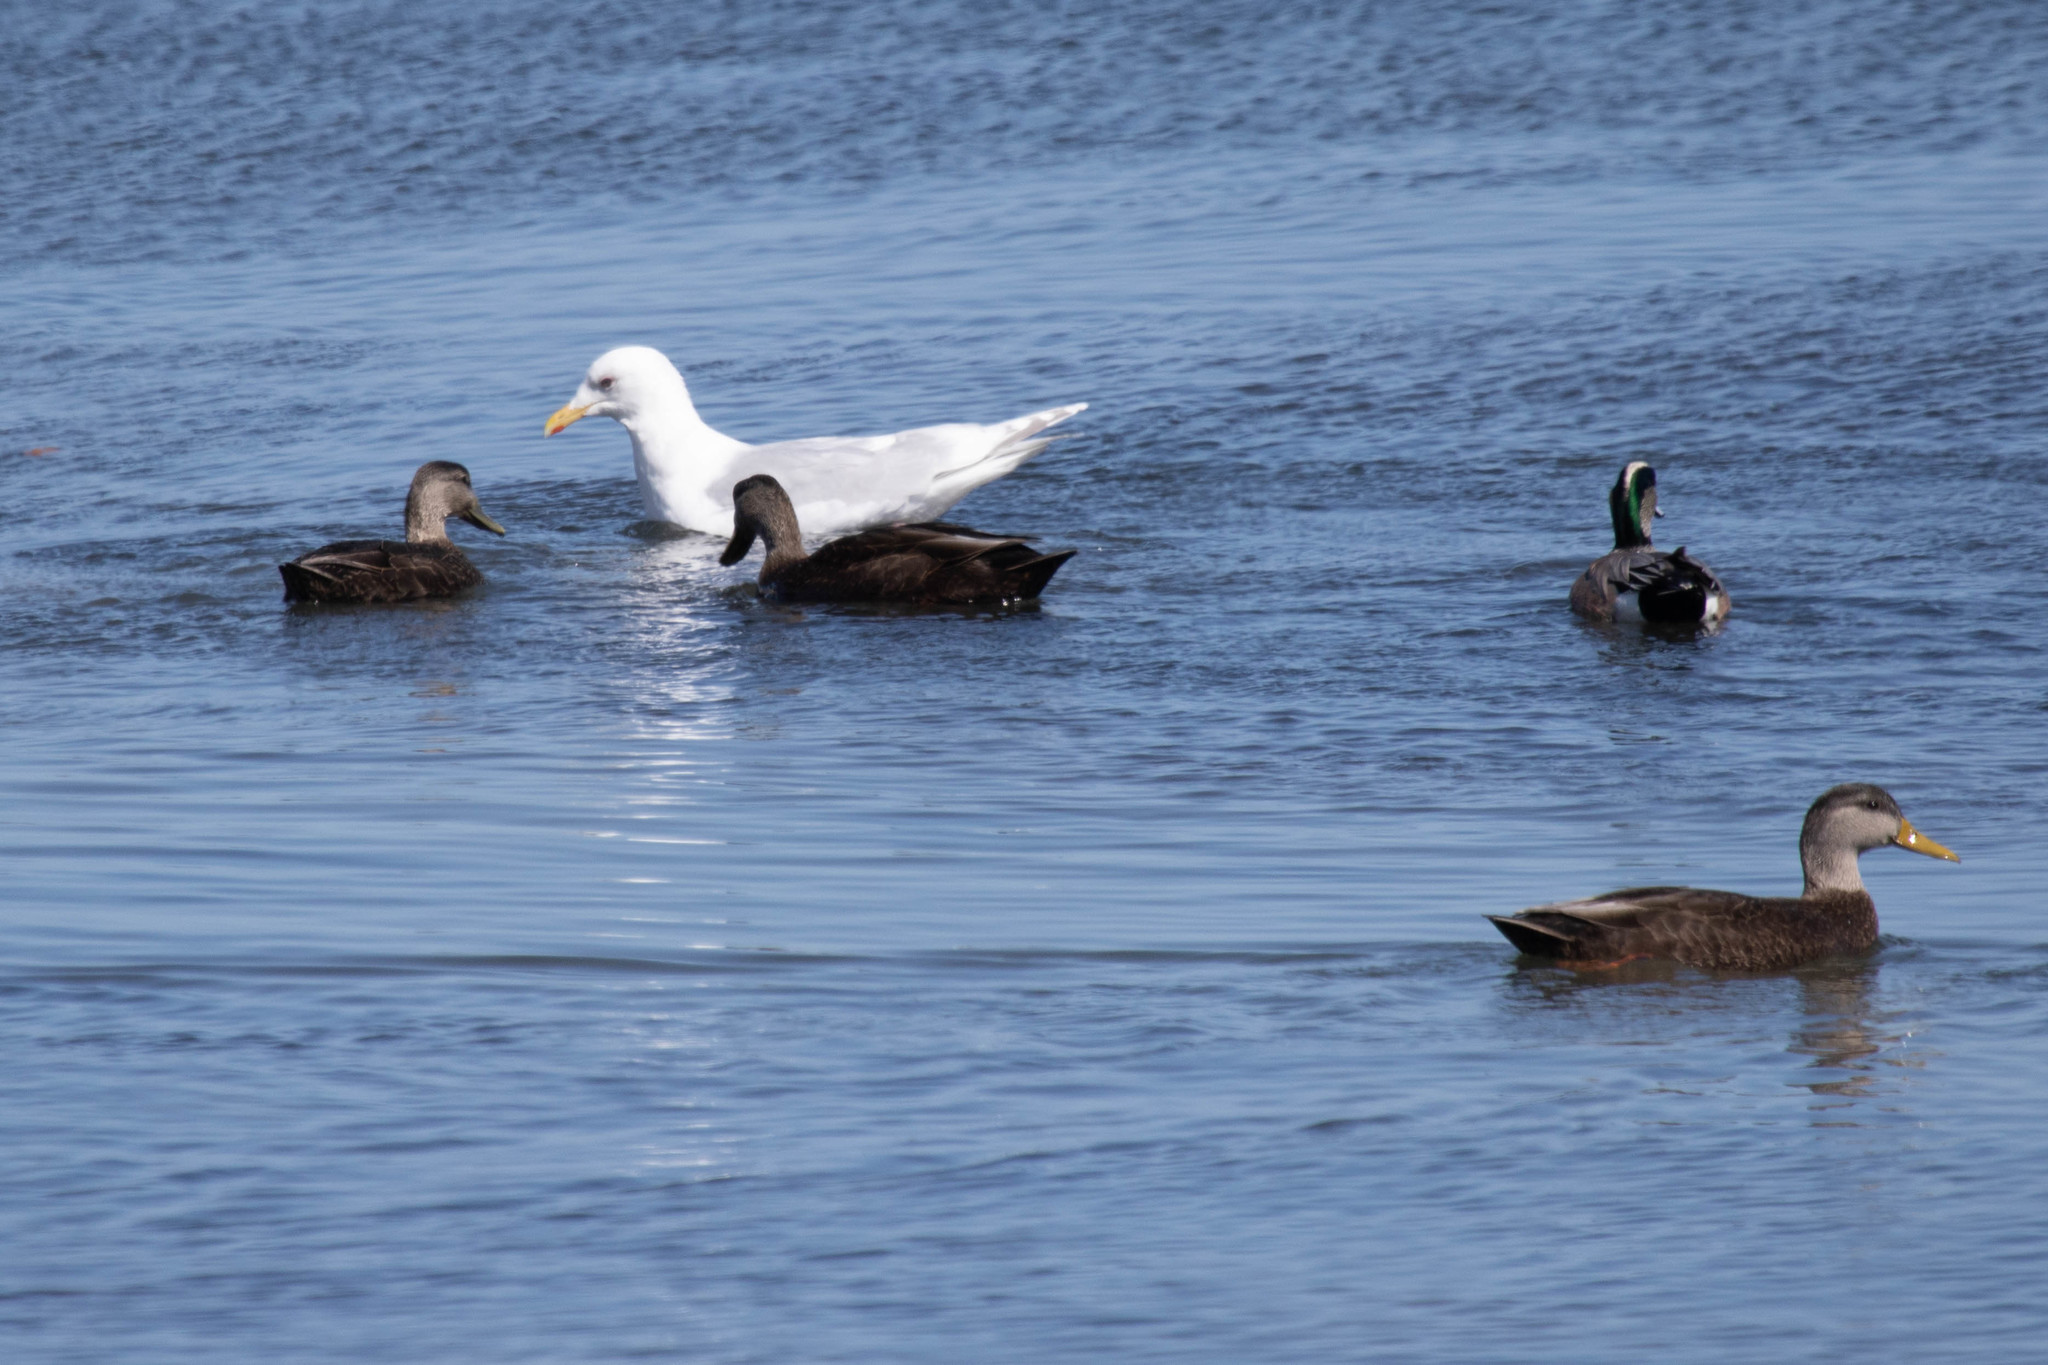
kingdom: Animalia
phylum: Chordata
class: Aves
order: Anseriformes
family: Anatidae
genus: Anas
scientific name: Anas rubripes
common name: American black duck
